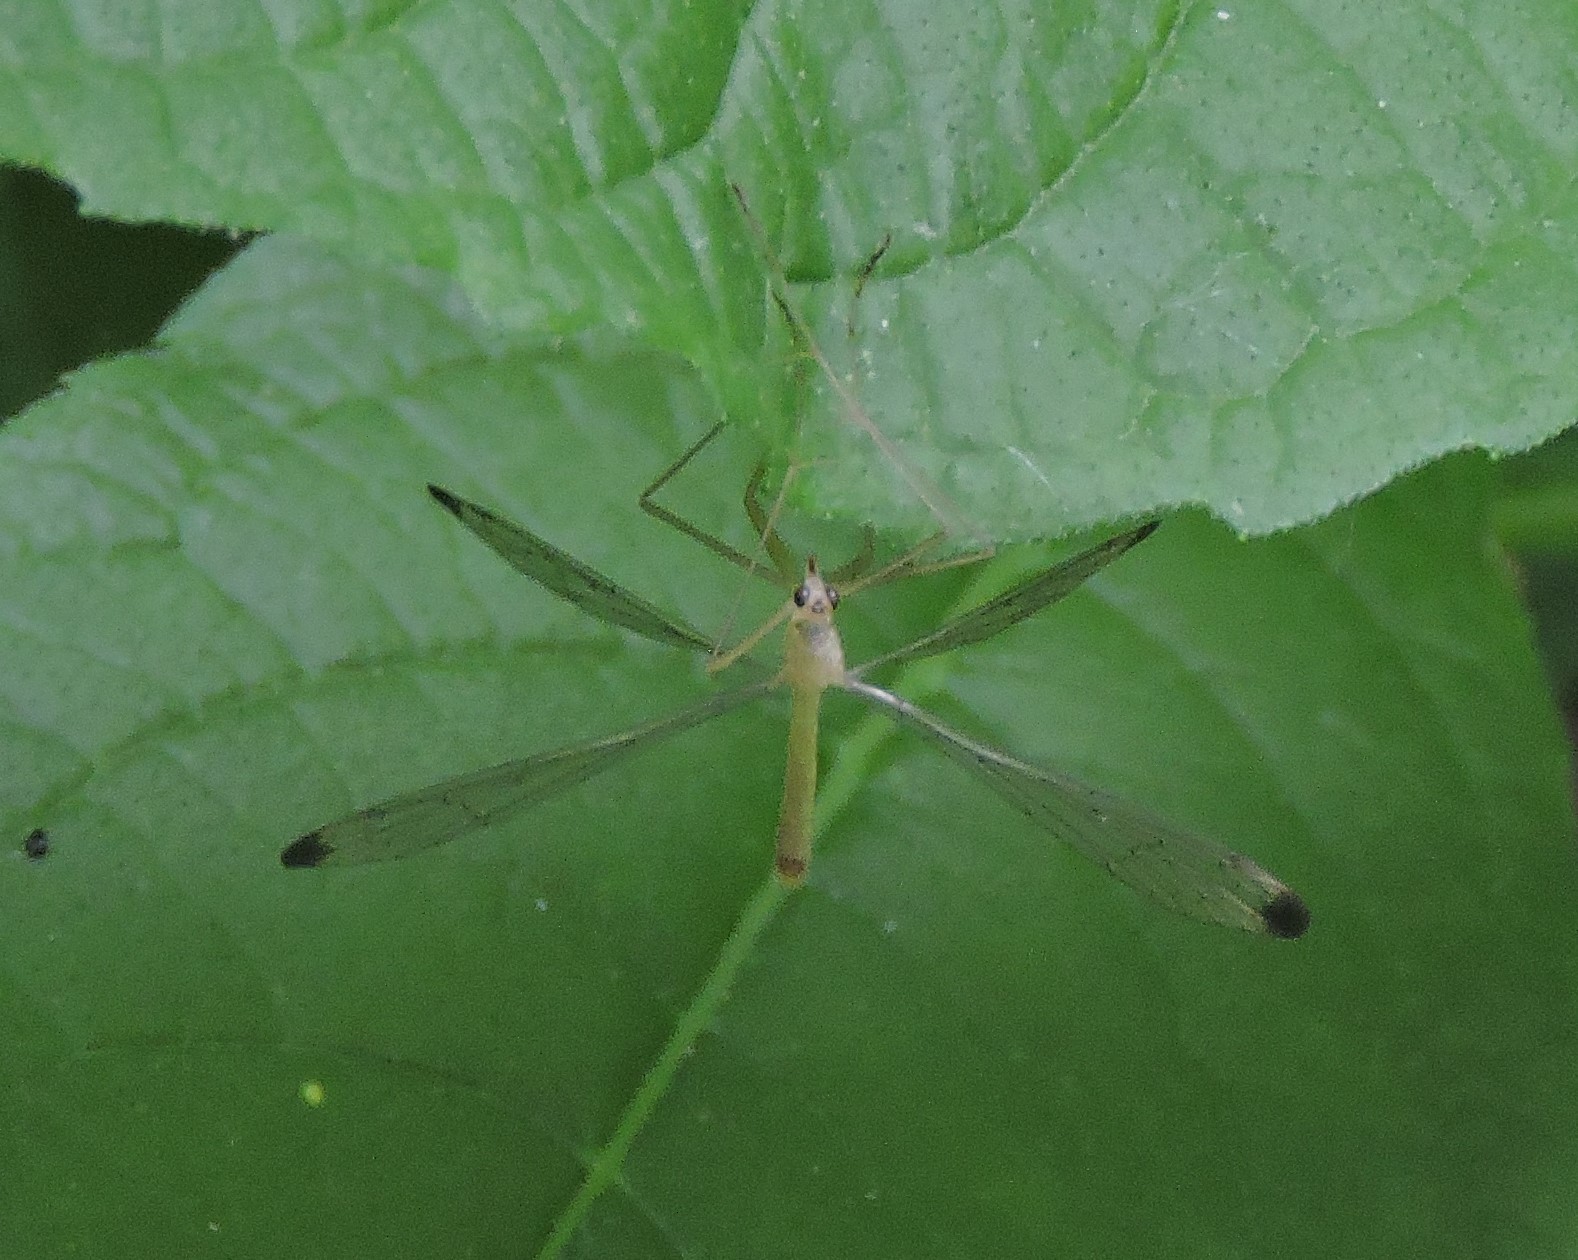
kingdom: Animalia
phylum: Arthropoda
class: Insecta
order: Mecoptera
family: Bittacidae
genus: Hylobittacus
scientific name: Hylobittacus apicalis
